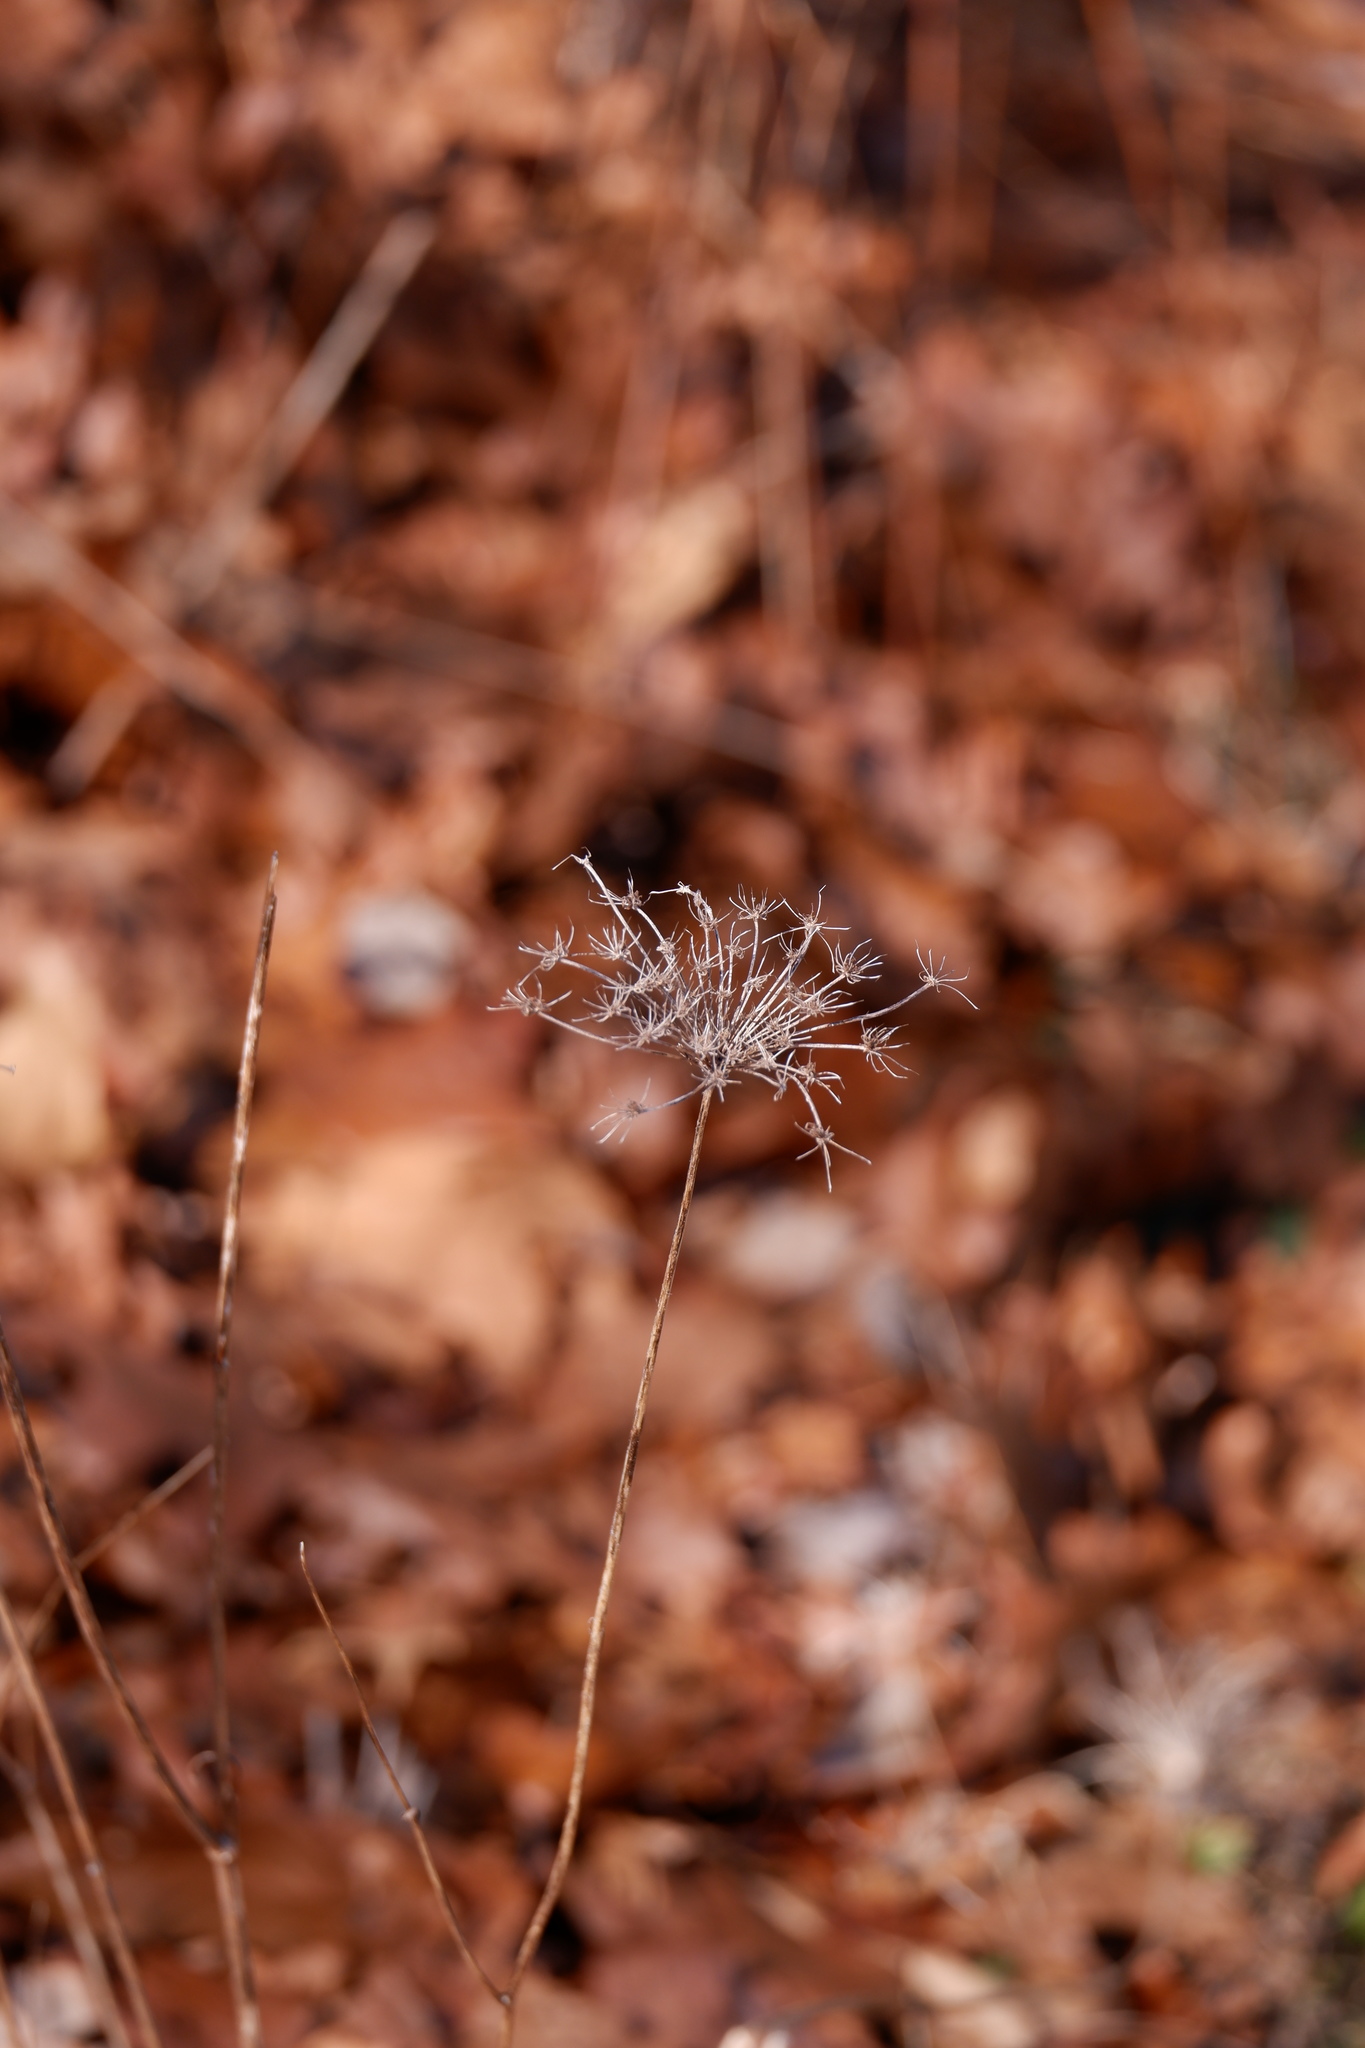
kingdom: Plantae
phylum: Tracheophyta
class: Magnoliopsida
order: Apiales
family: Apiaceae
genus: Daucus
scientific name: Daucus carota
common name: Wild carrot
